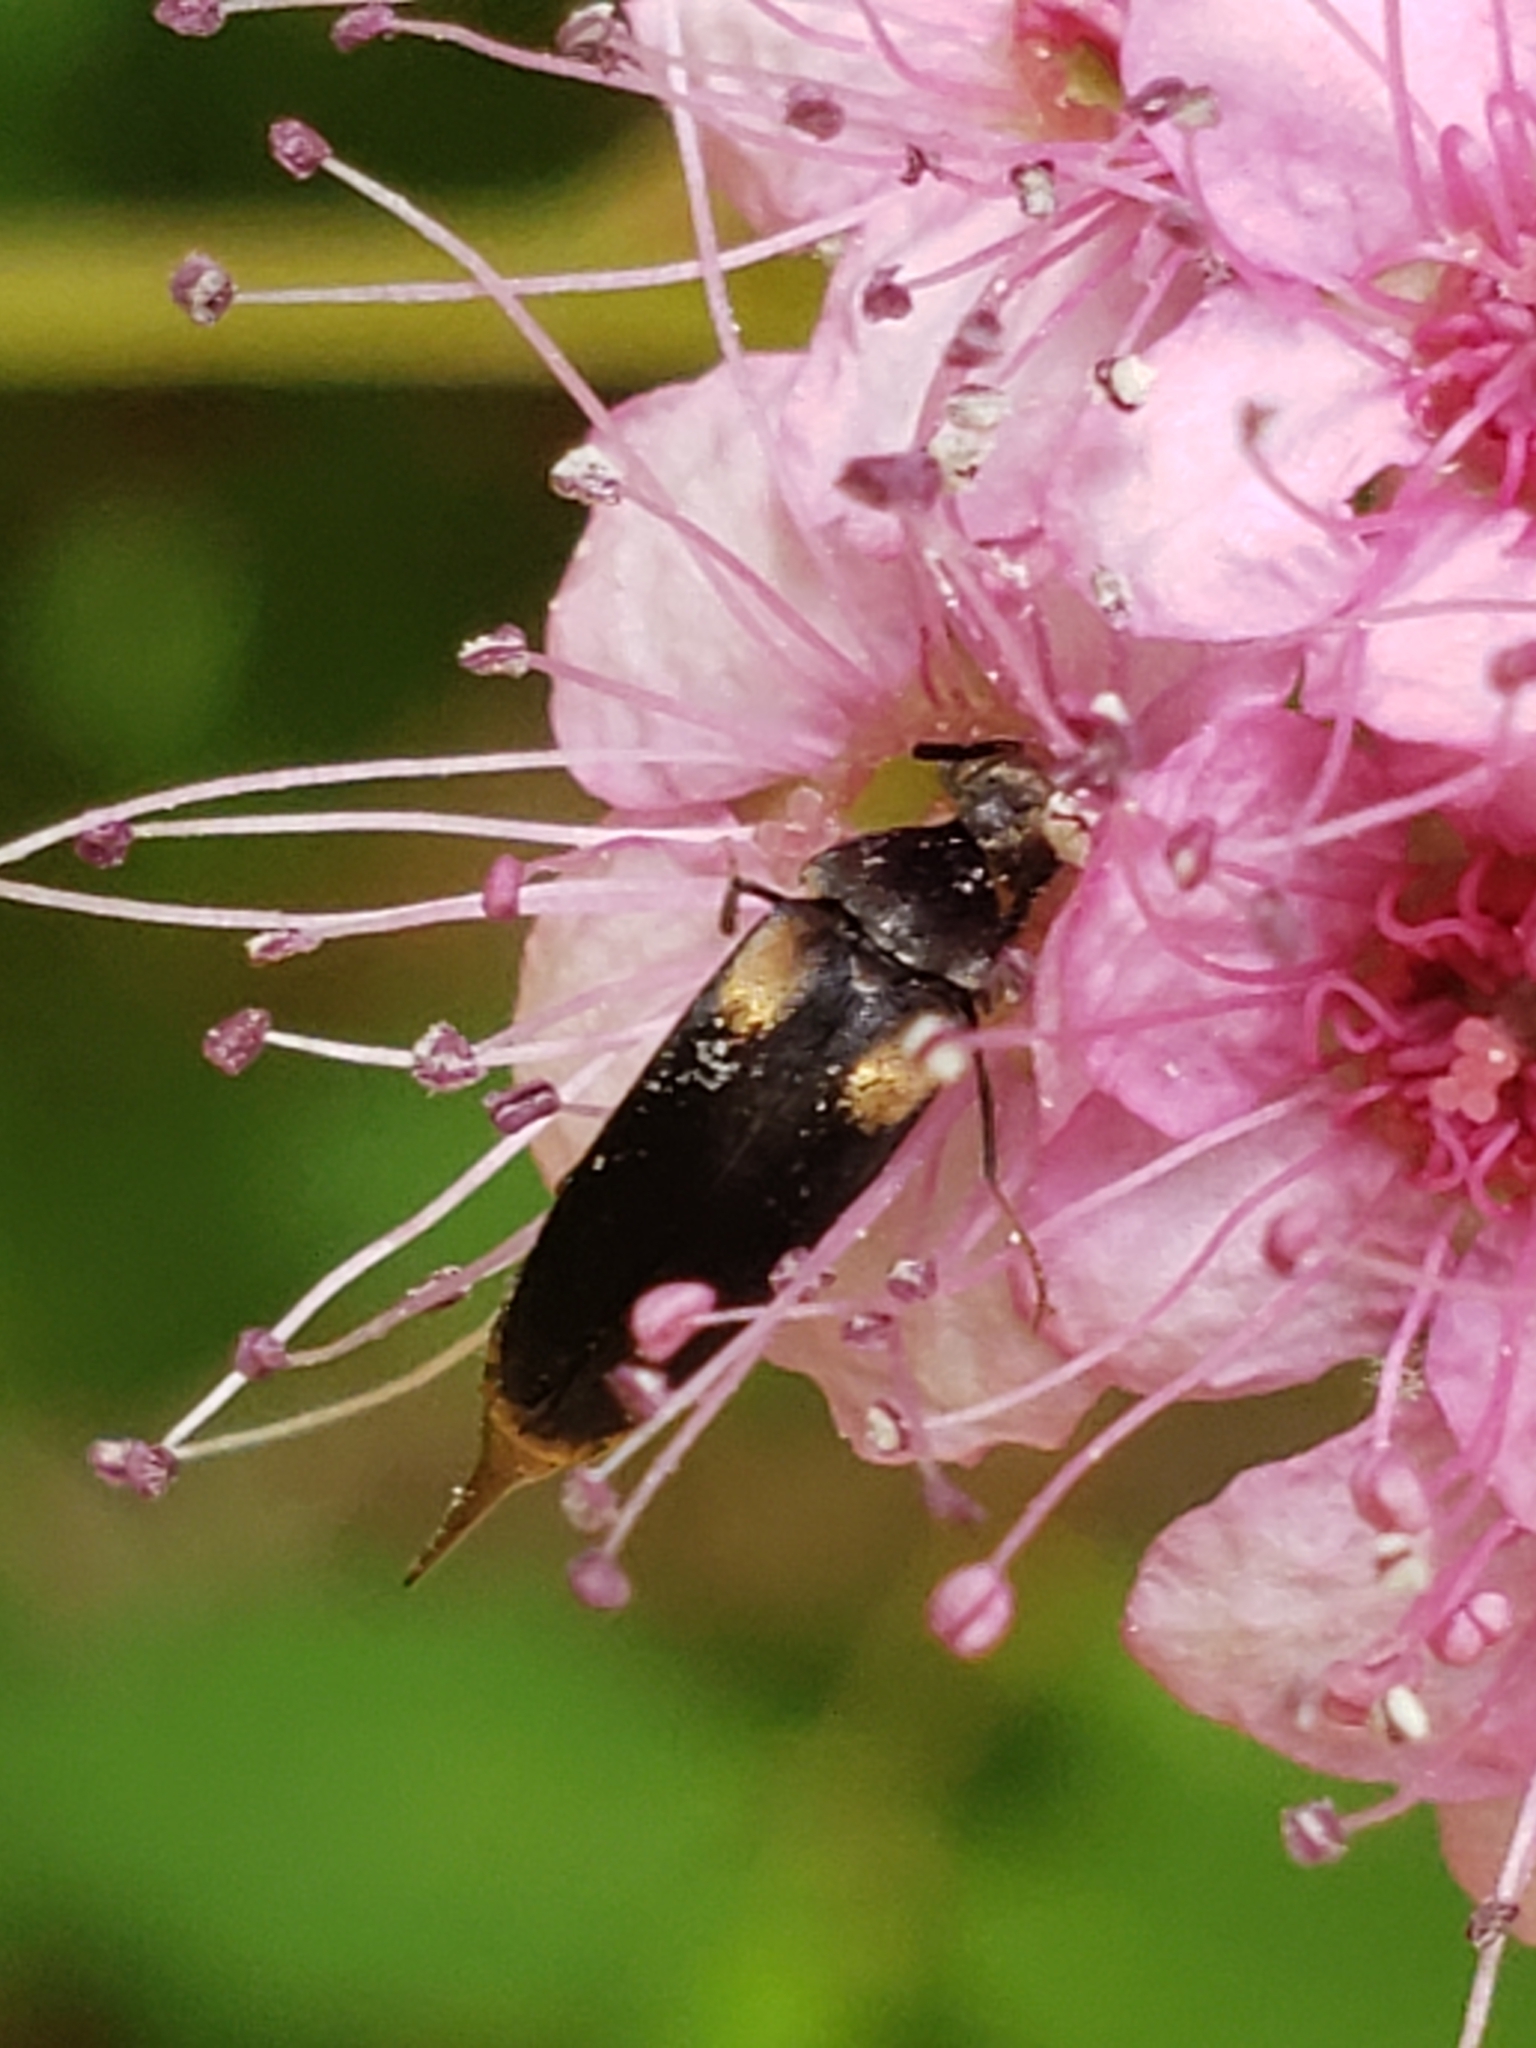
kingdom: Animalia
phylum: Arthropoda
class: Insecta
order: Coleoptera
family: Mordellidae
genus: Mordellochroa
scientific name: Mordellochroa scapularis
